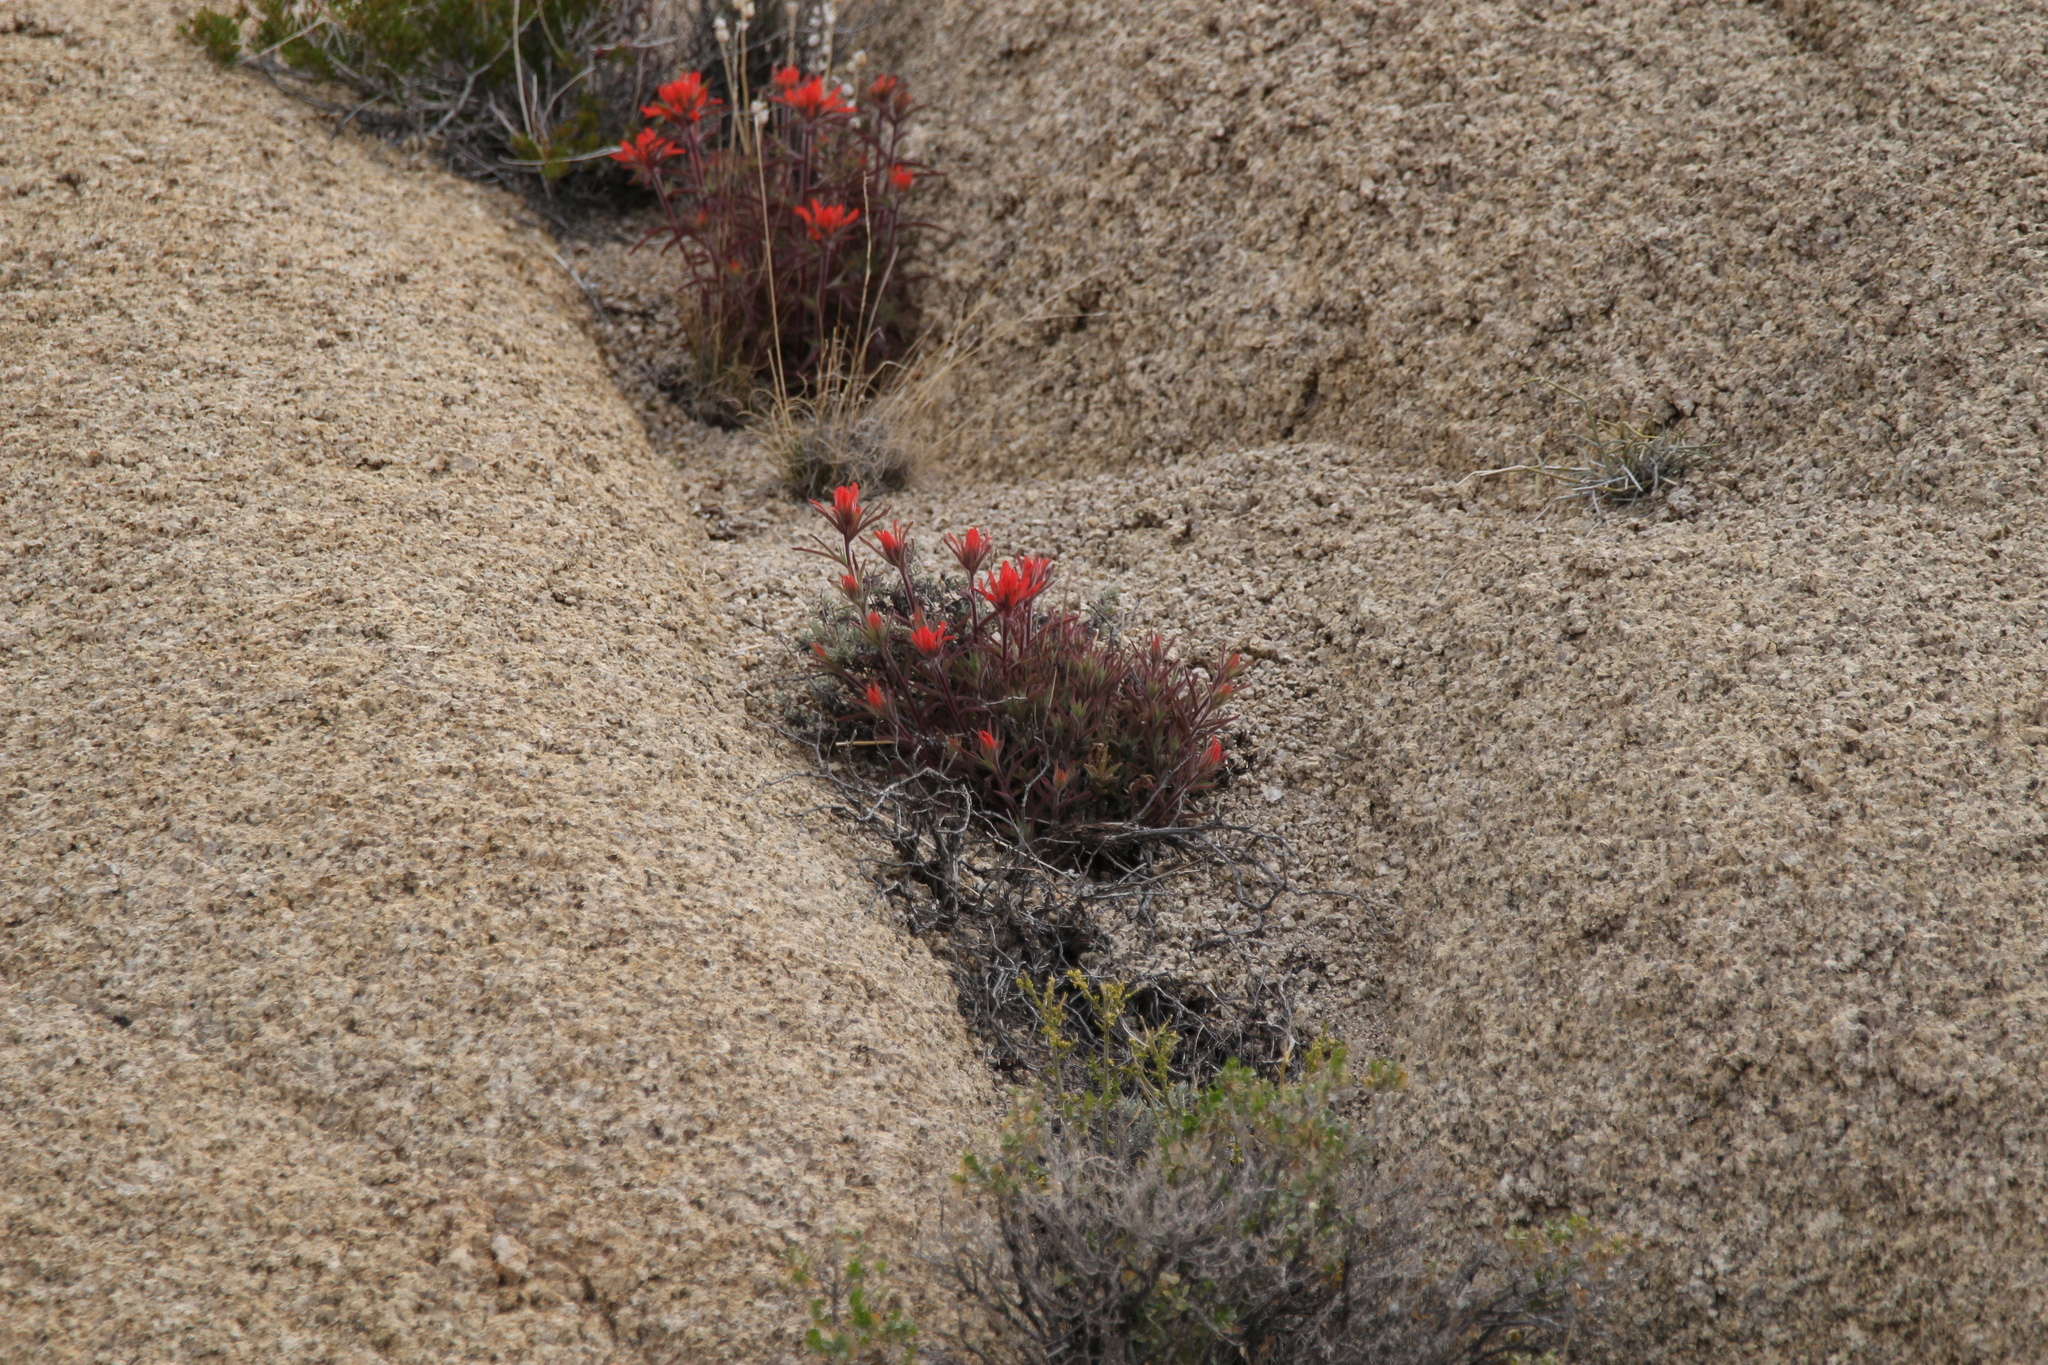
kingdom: Plantae
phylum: Tracheophyta
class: Magnoliopsida
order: Lamiales
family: Orobanchaceae
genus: Castilleja
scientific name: Castilleja chromosa
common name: Desert paintbrush
